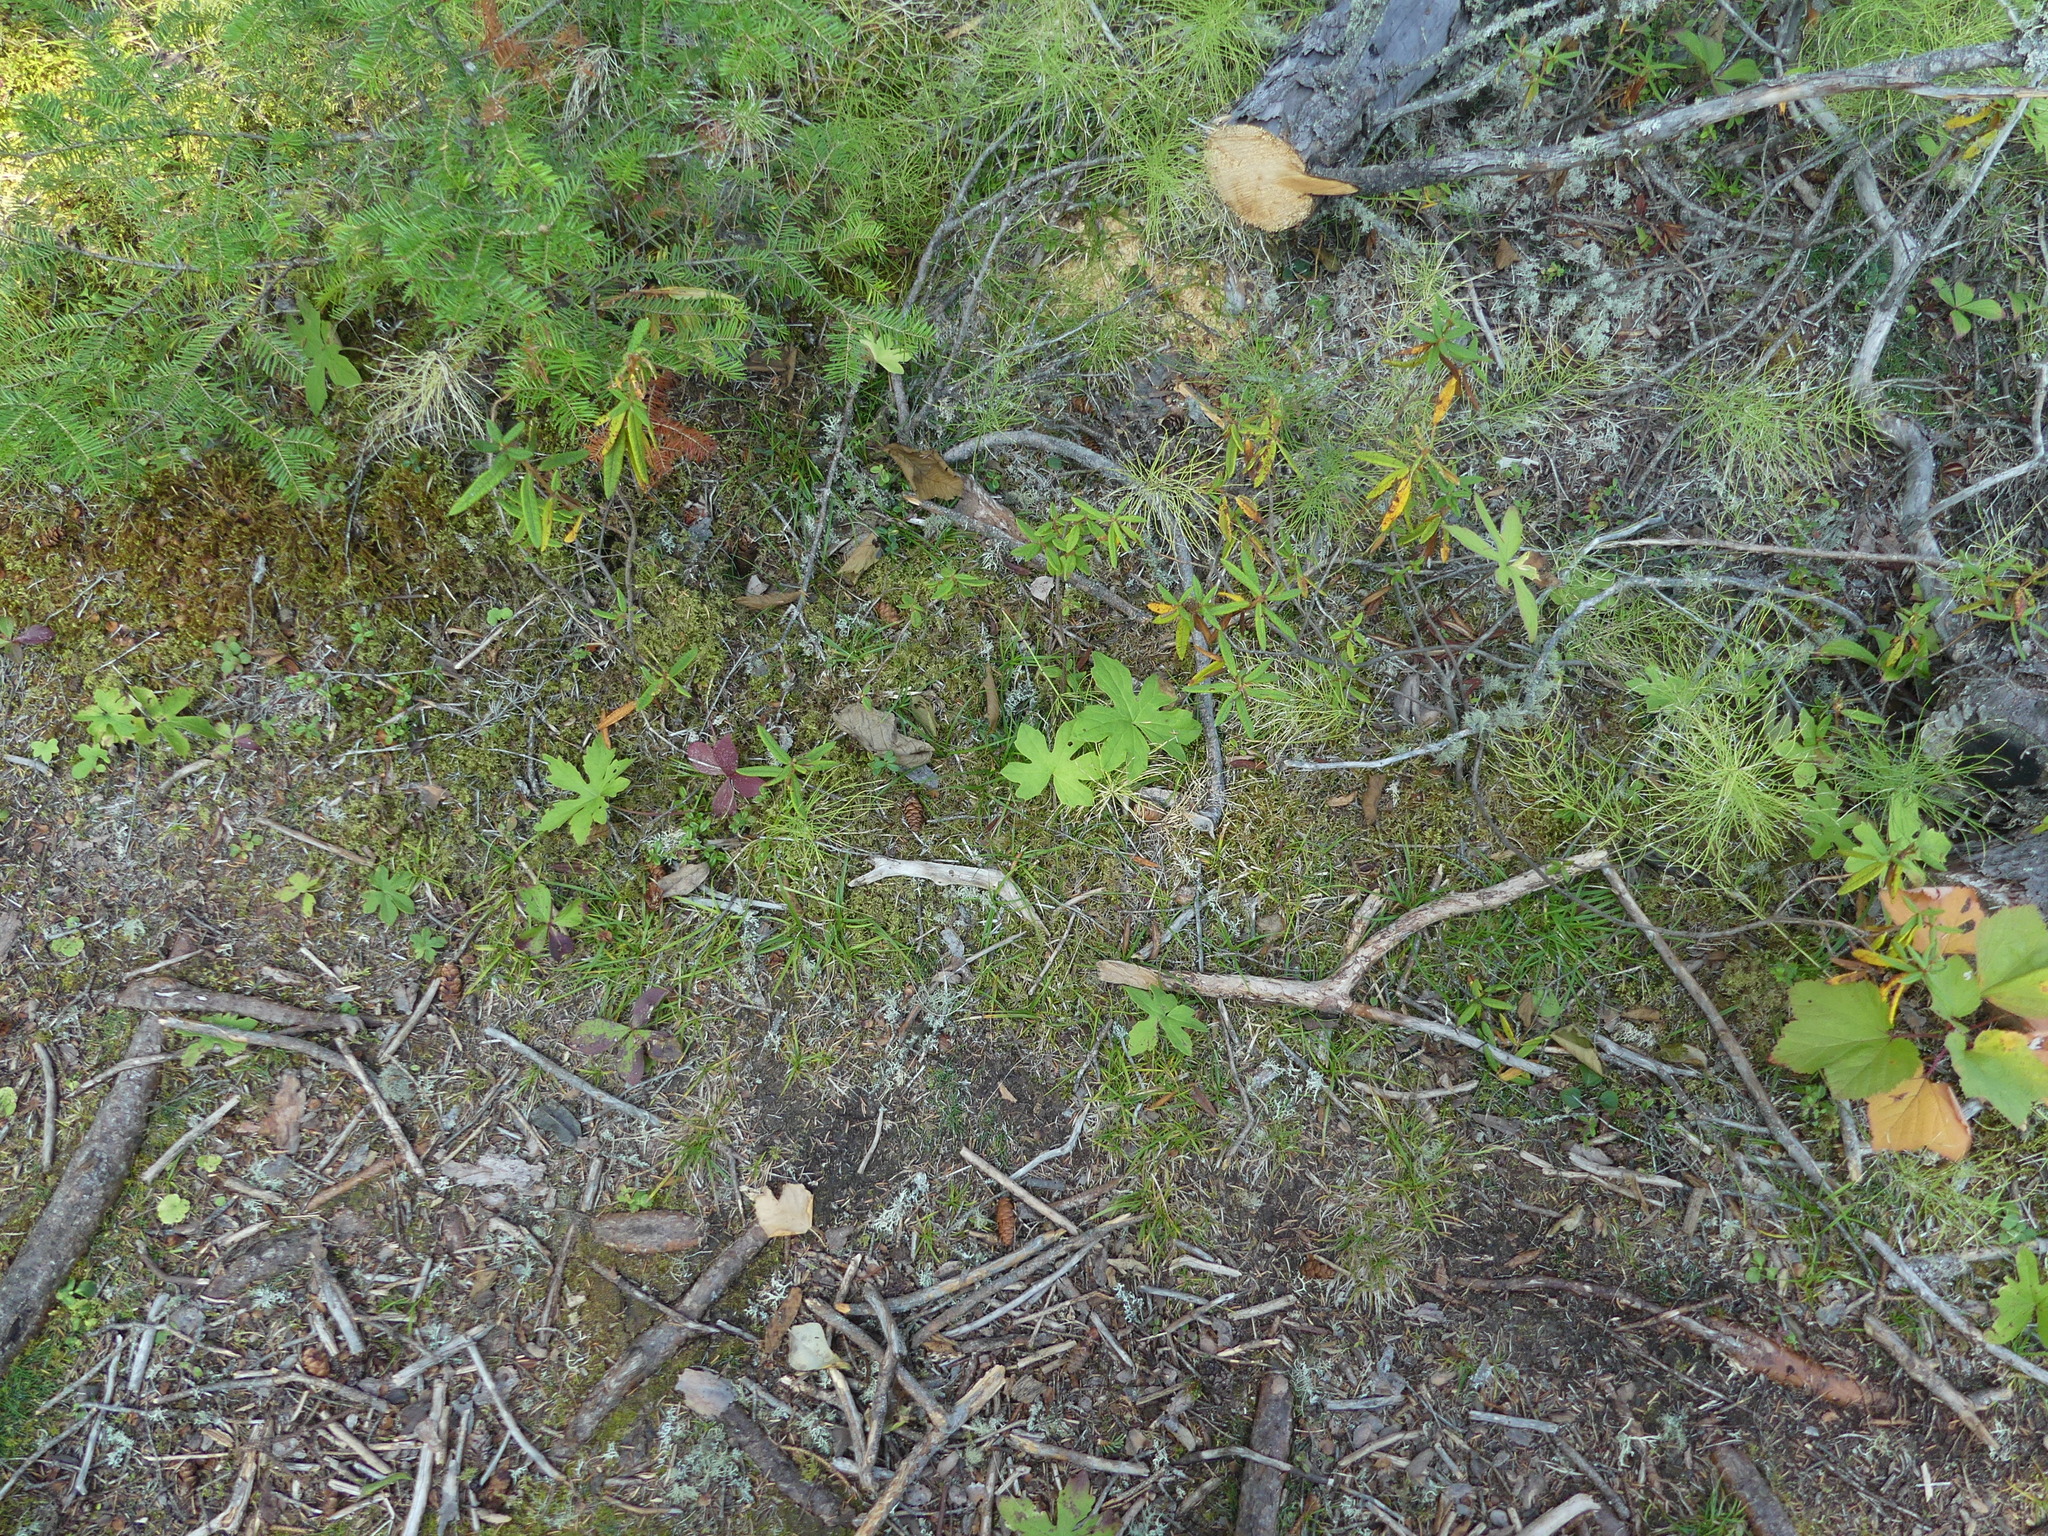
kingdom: Plantae
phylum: Tracheophyta
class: Magnoliopsida
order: Asterales
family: Asteraceae
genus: Petasites
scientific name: Petasites frigidus
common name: Arctic butterbur
